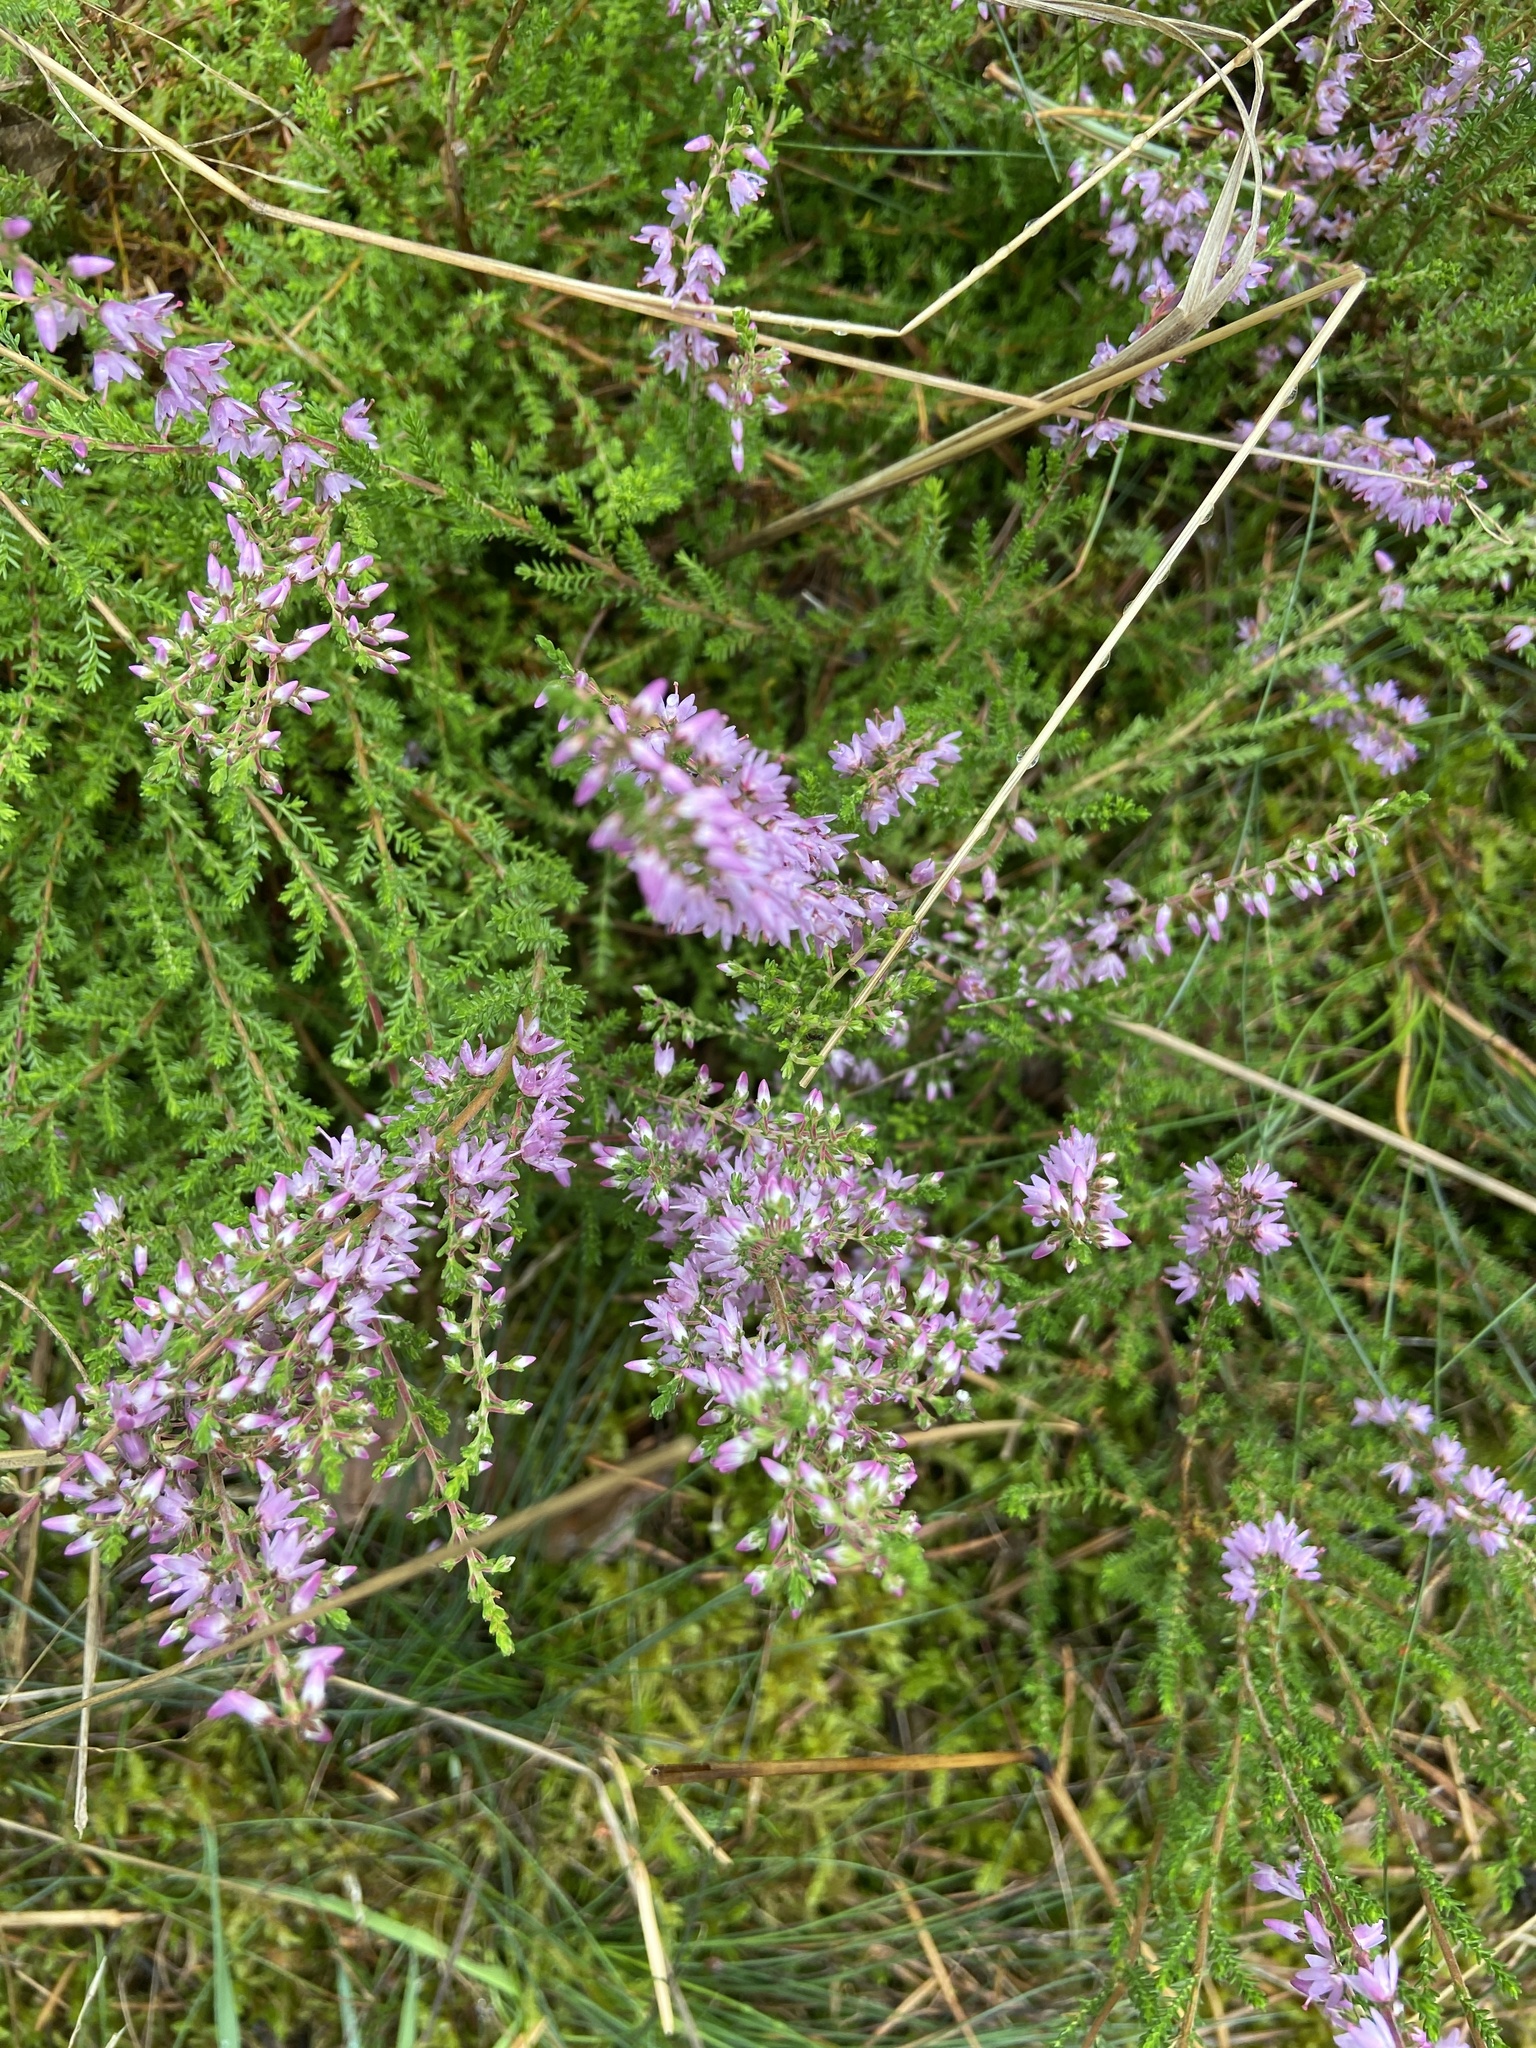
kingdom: Plantae
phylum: Tracheophyta
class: Magnoliopsida
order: Ericales
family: Ericaceae
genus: Calluna
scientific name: Calluna vulgaris
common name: Heather
